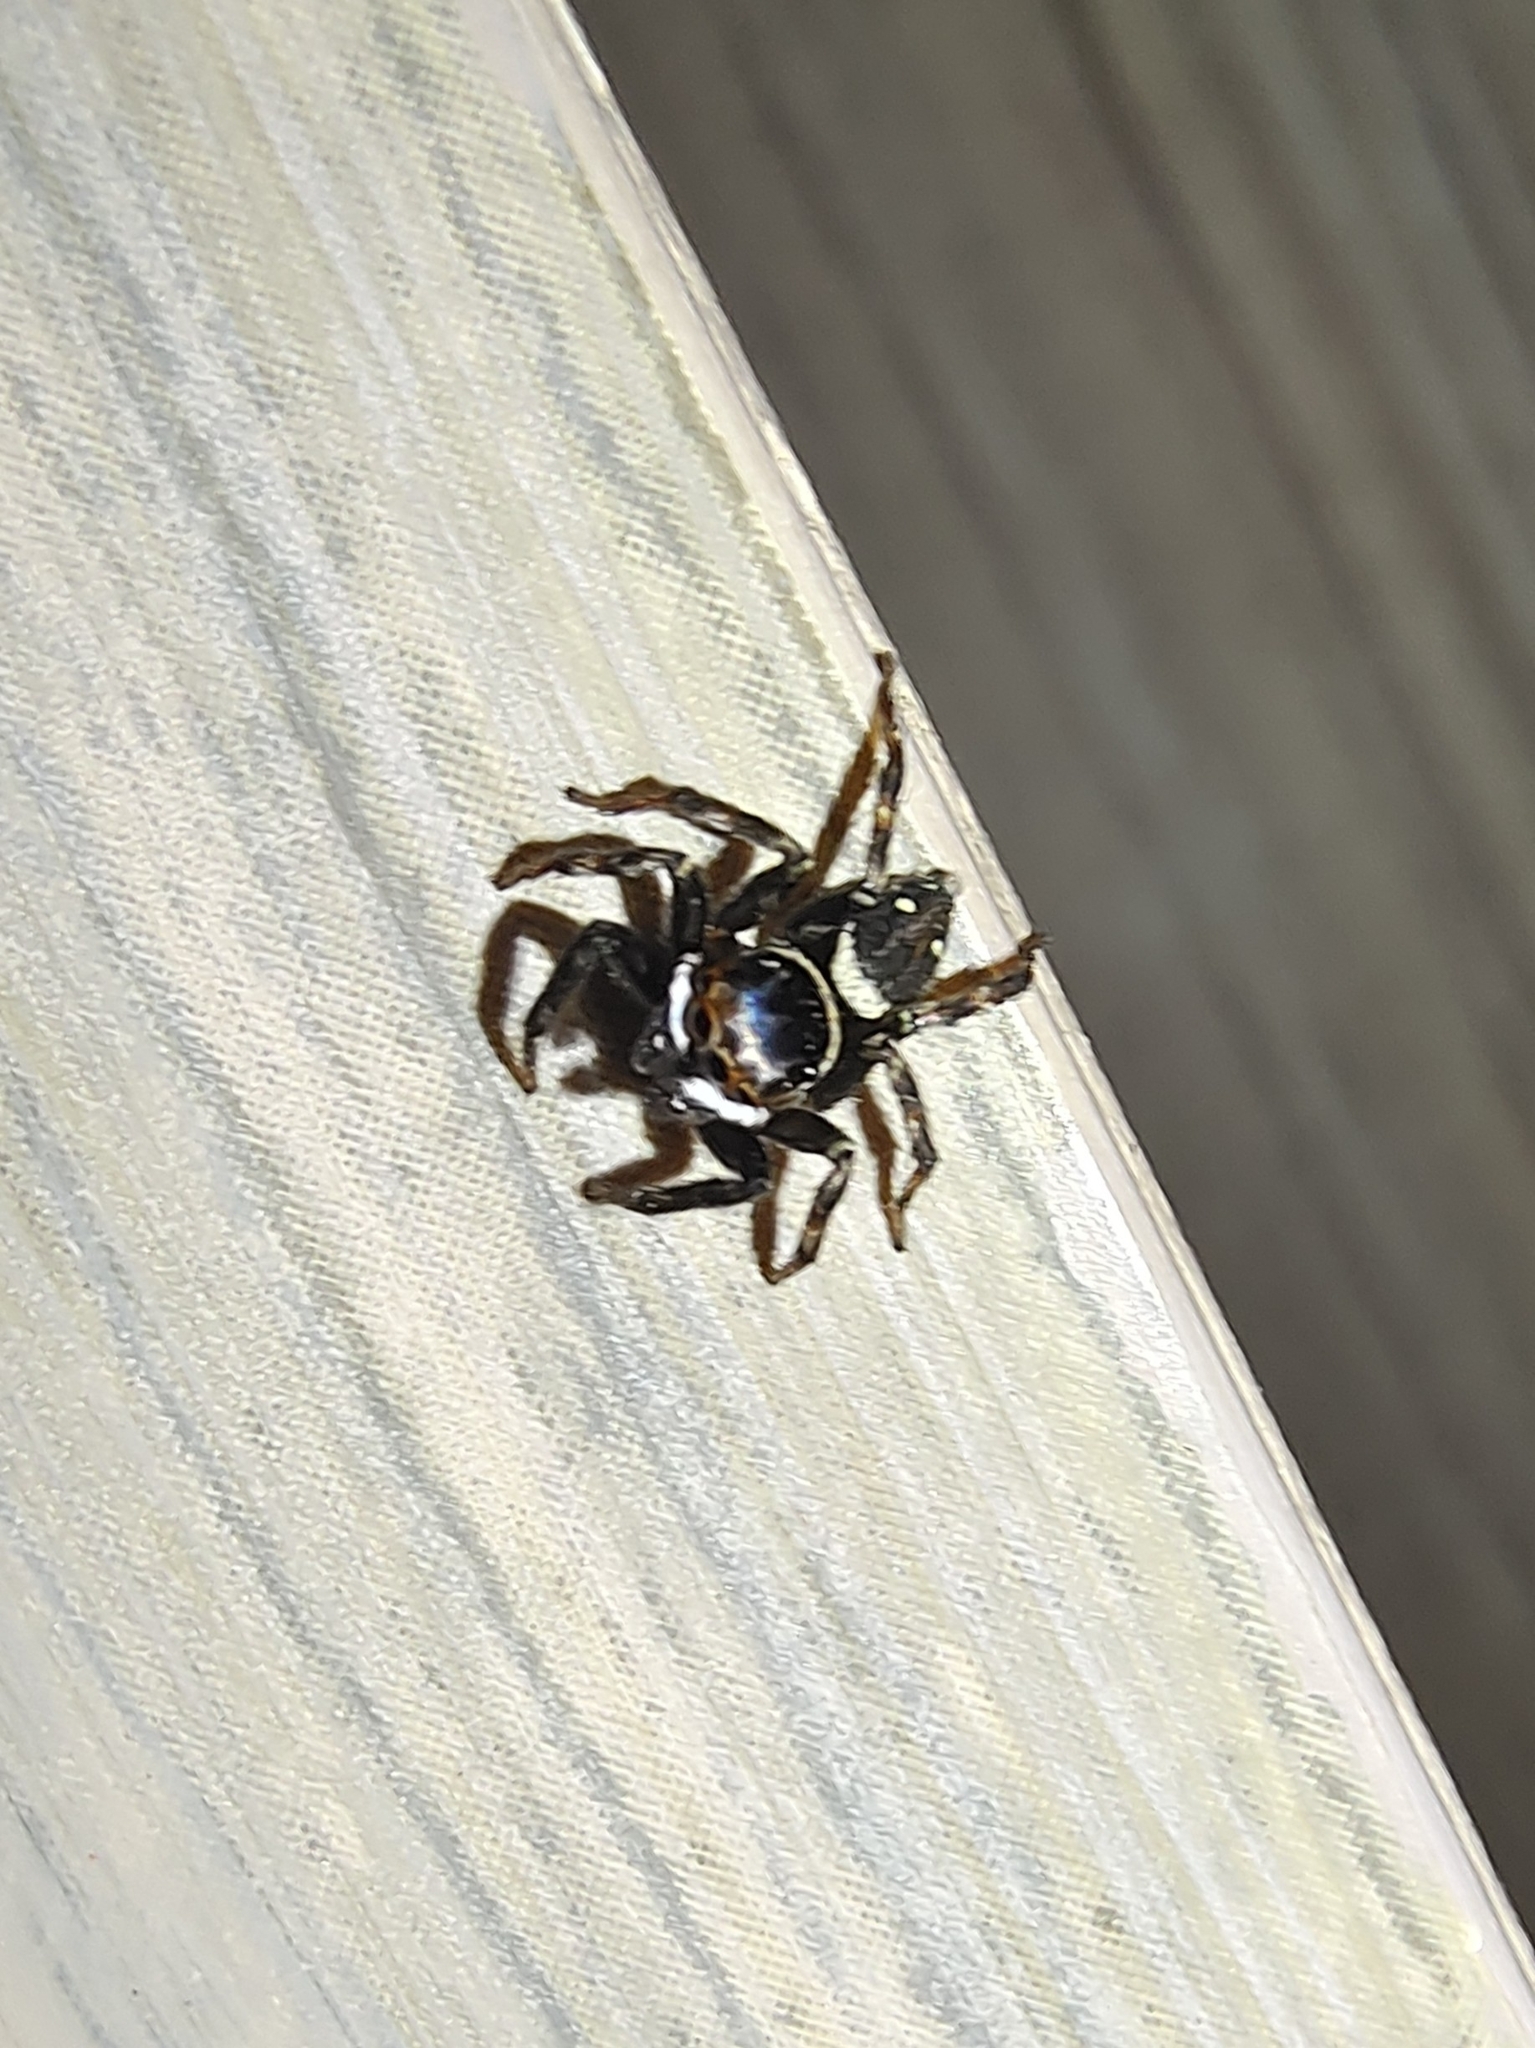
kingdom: Animalia
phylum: Arthropoda
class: Arachnida
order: Araneae
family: Salticidae
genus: Hasarius
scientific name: Hasarius adansoni
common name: Jumping spider
